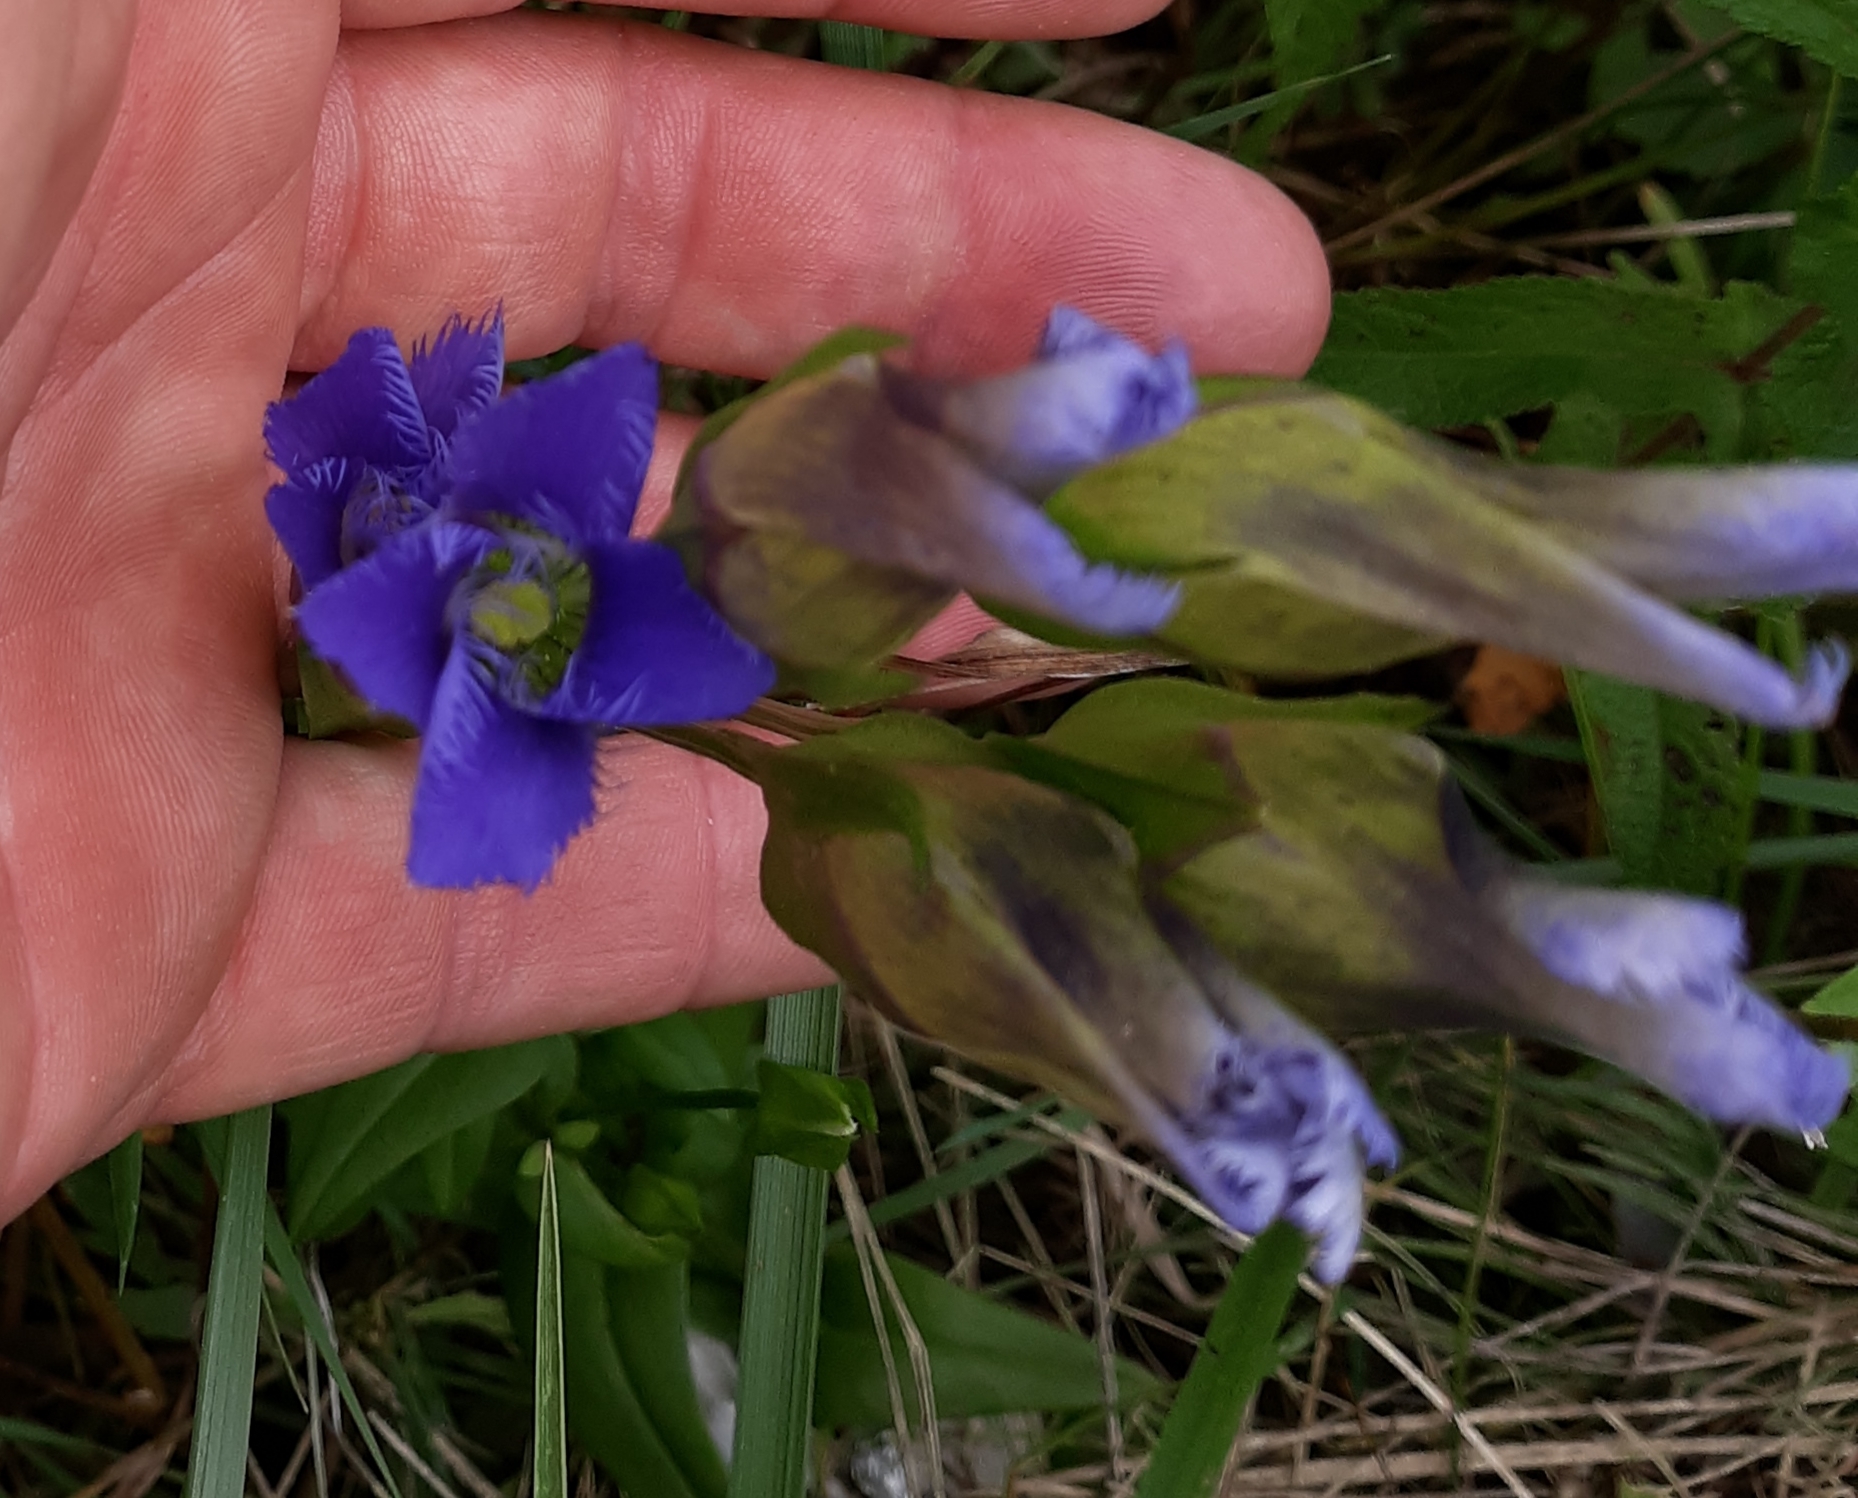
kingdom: Plantae
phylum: Tracheophyta
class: Magnoliopsida
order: Gentianales
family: Gentianaceae
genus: Gentianopsis
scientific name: Gentianopsis crinita
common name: Fringed-gentian
